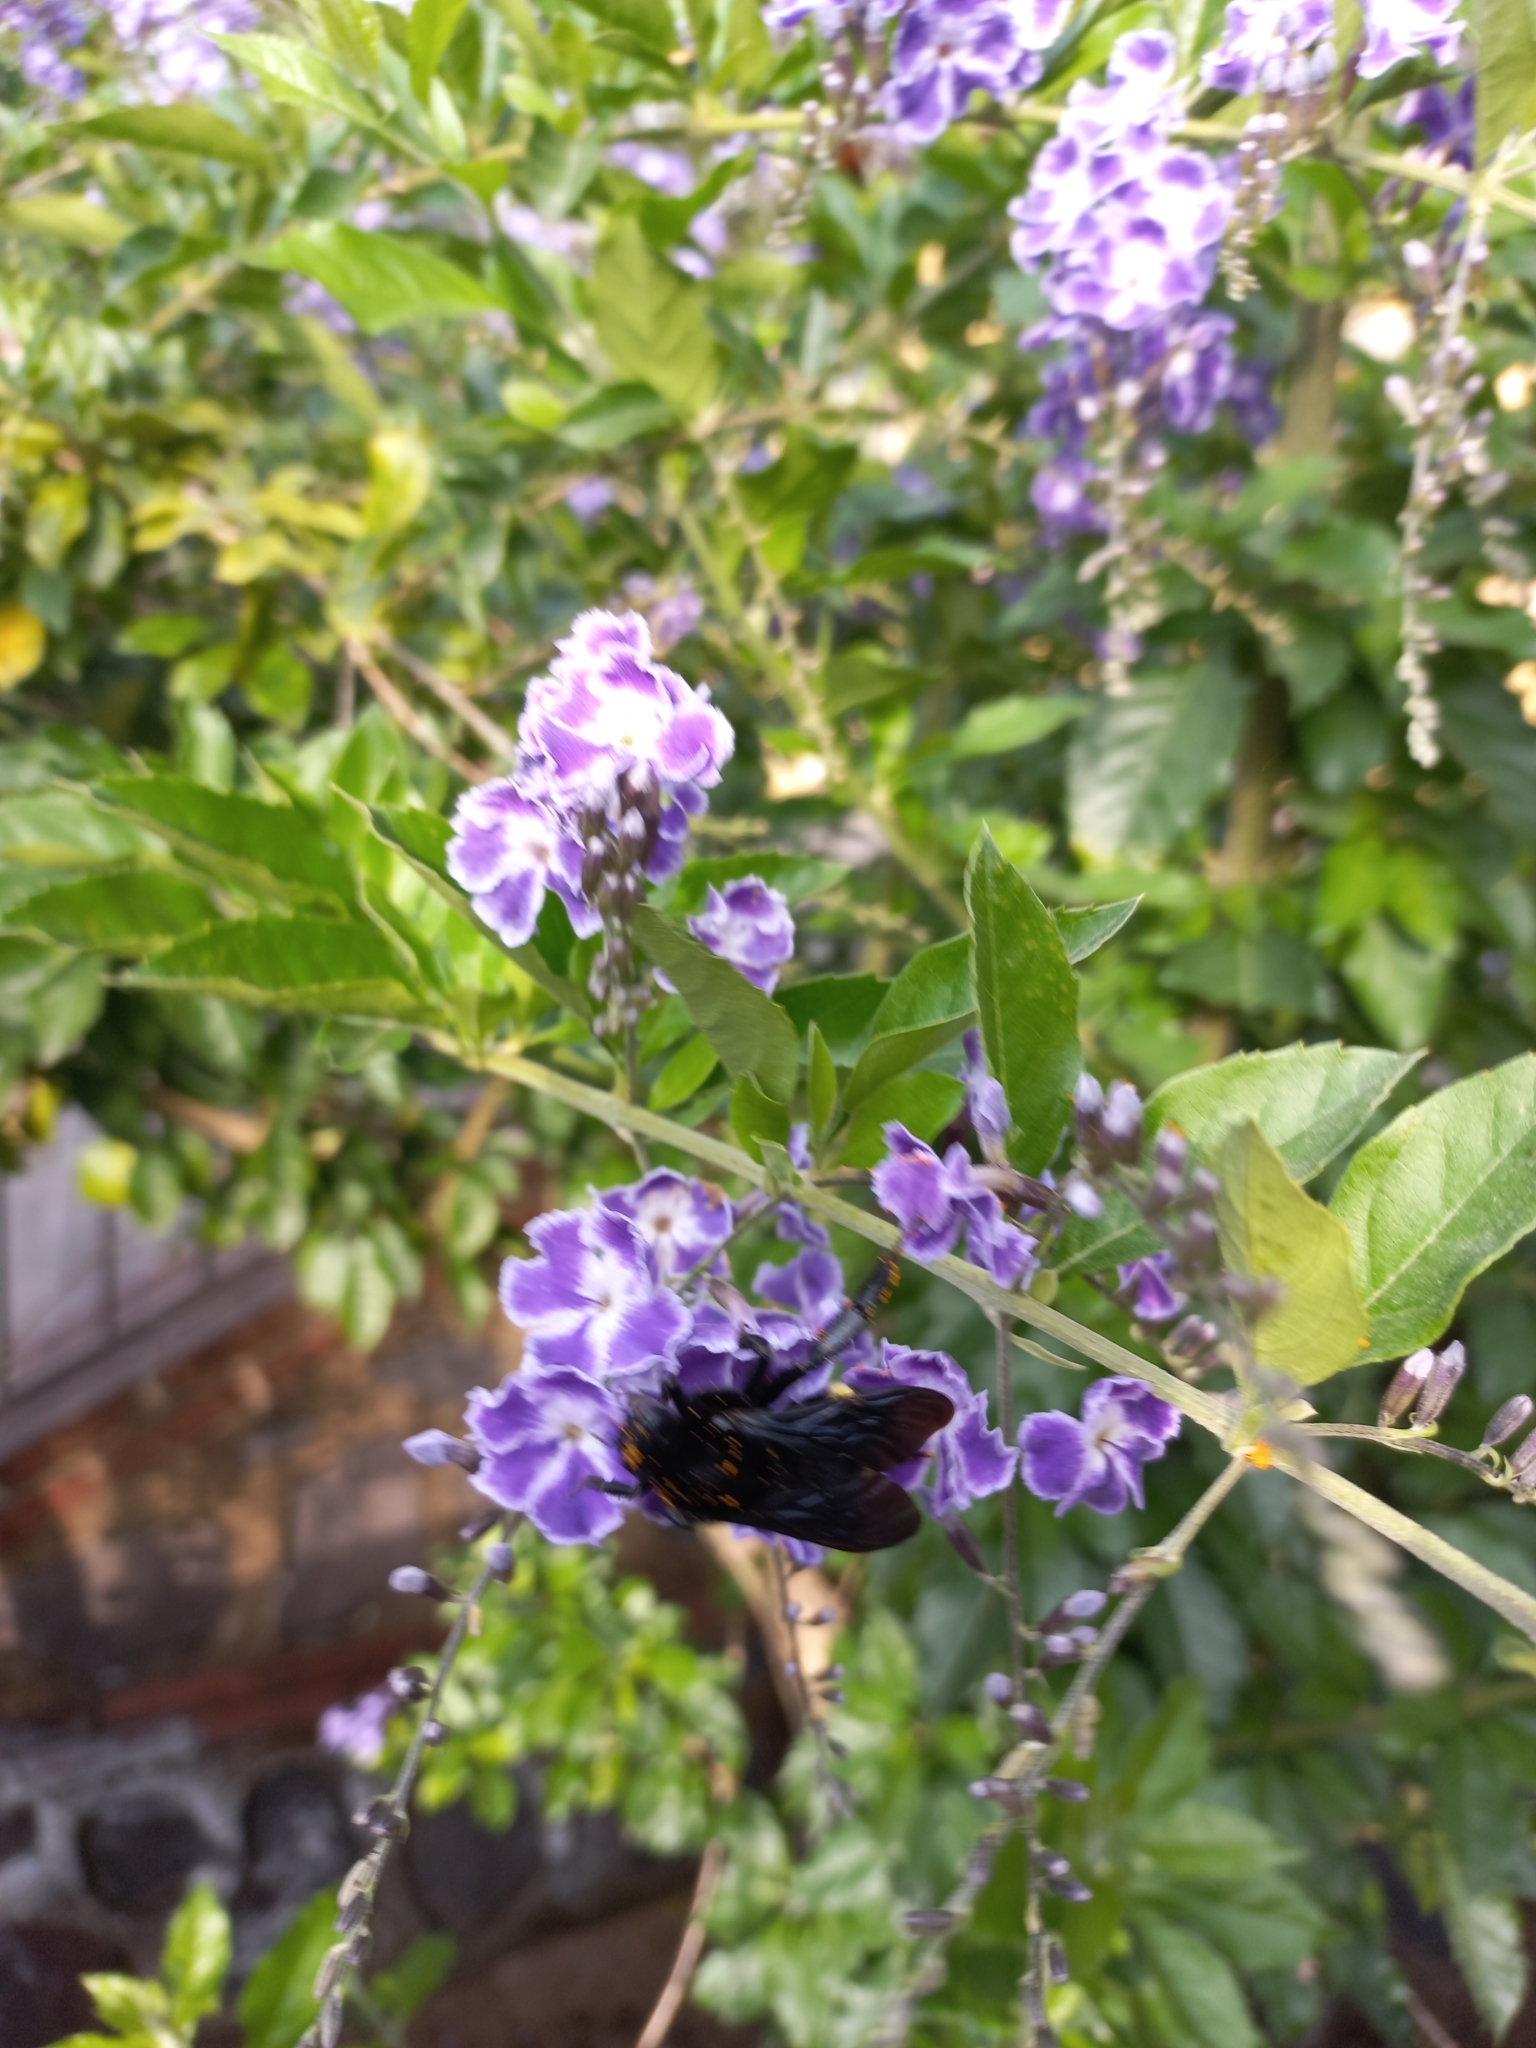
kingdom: Animalia
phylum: Arthropoda
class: Insecta
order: Hymenoptera
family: Apidae
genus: Bombus
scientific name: Bombus mexicanus
